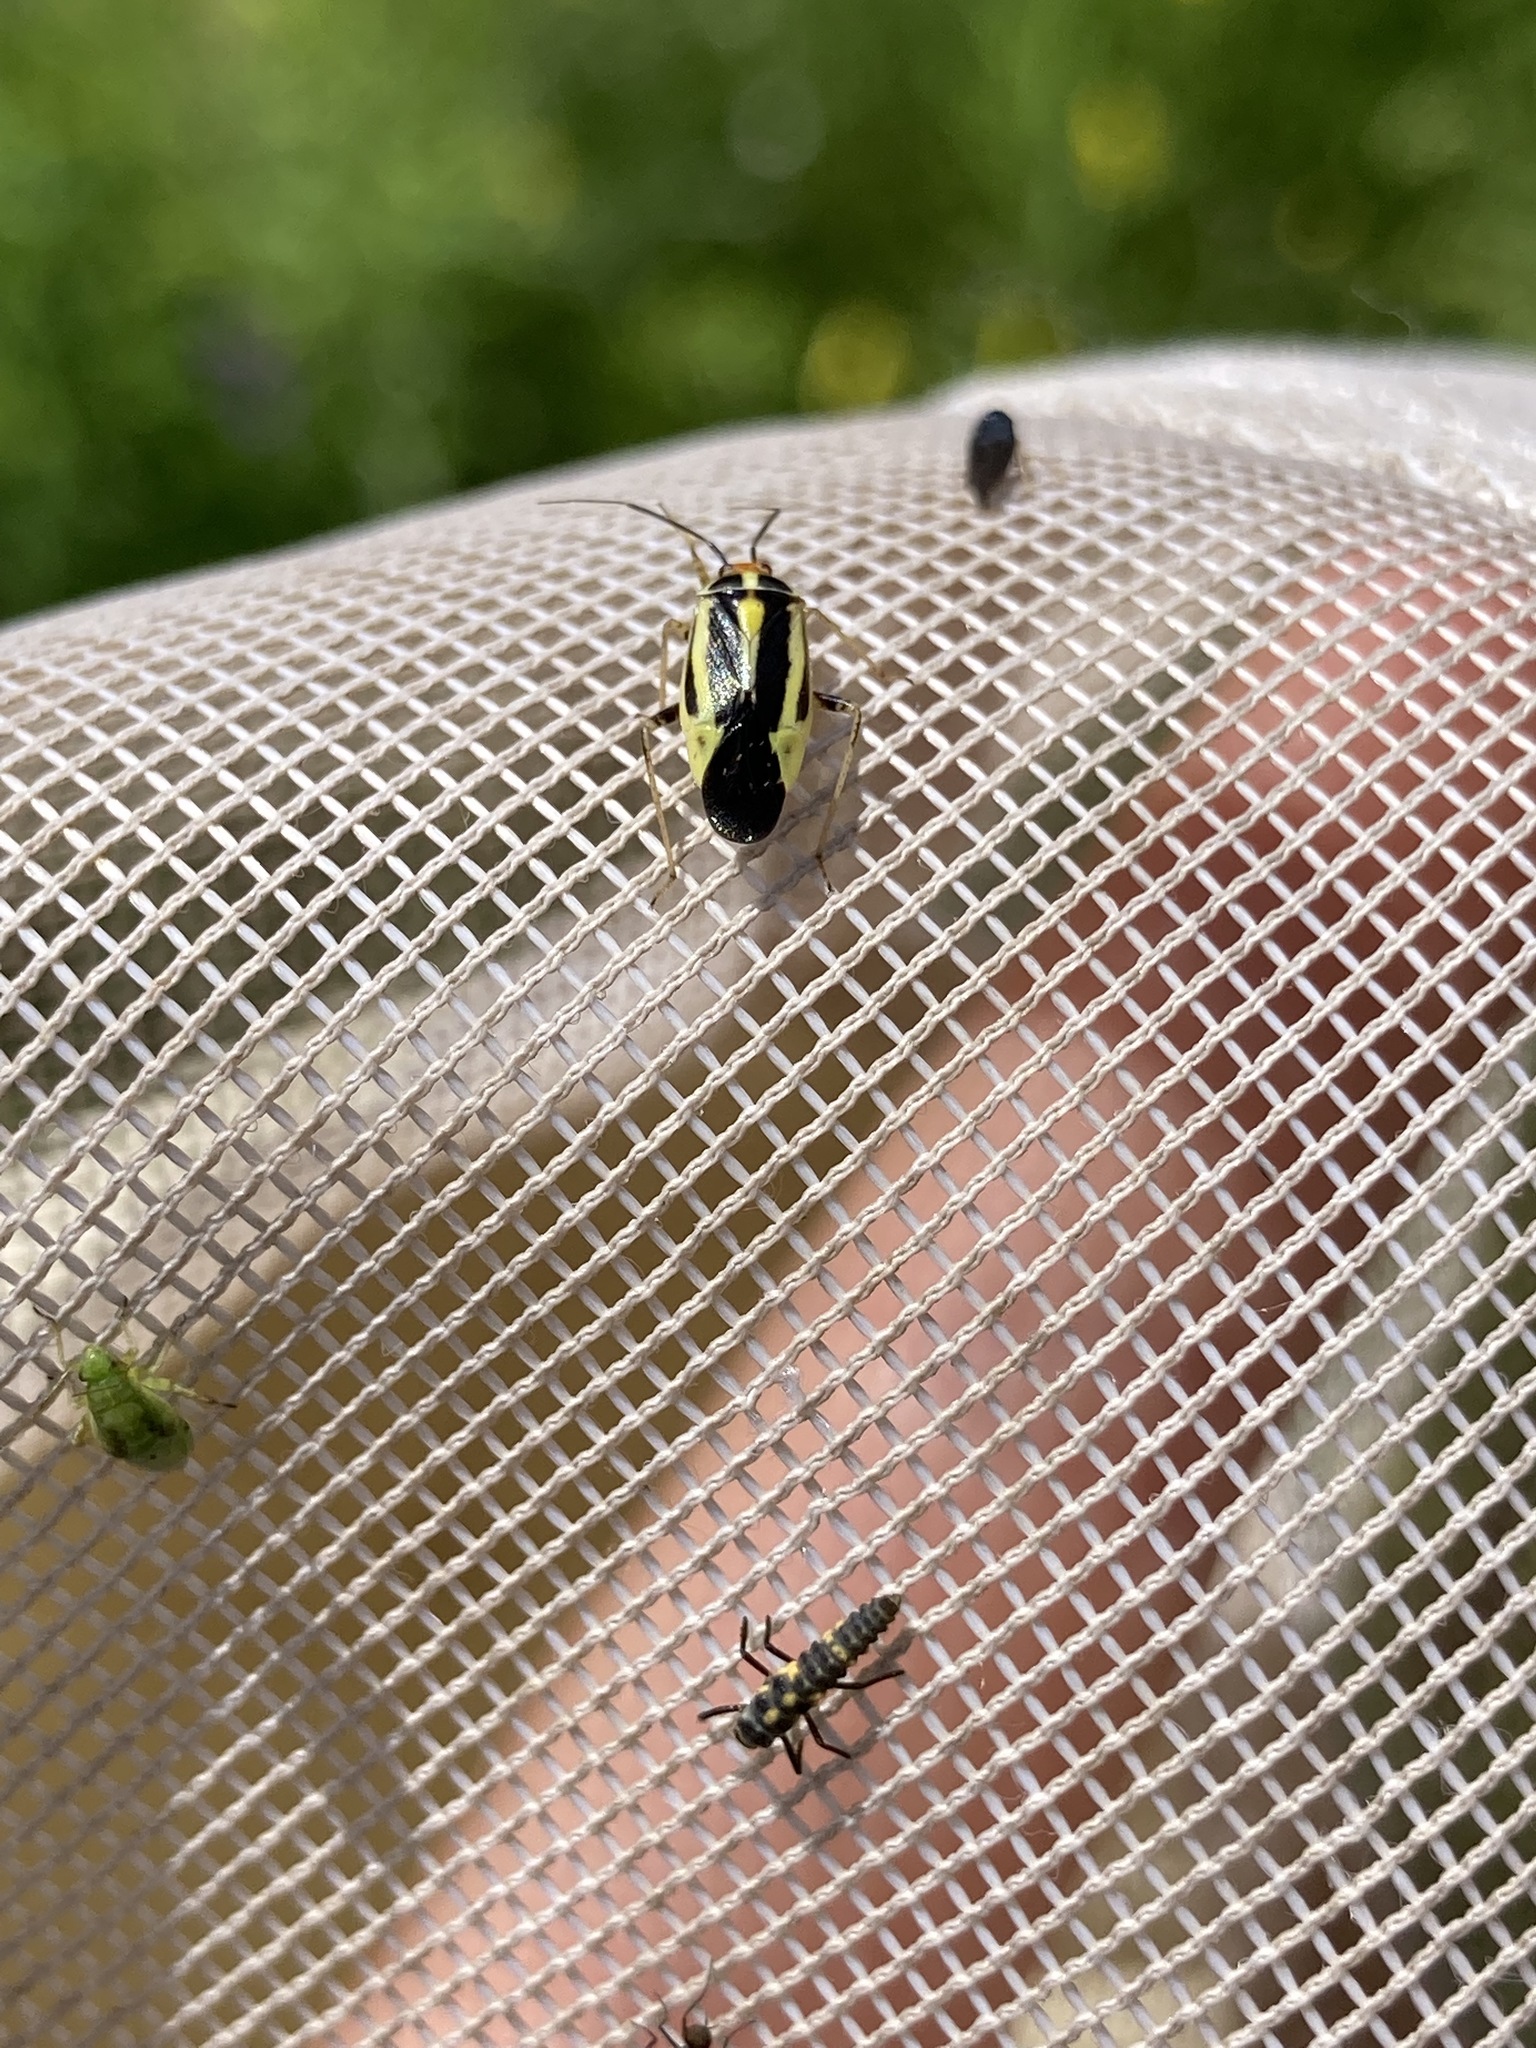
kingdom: Animalia
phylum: Arthropoda
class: Insecta
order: Hemiptera
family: Miridae
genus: Poecilocapsus
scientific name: Poecilocapsus lineatus
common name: Four-lined plant bug
